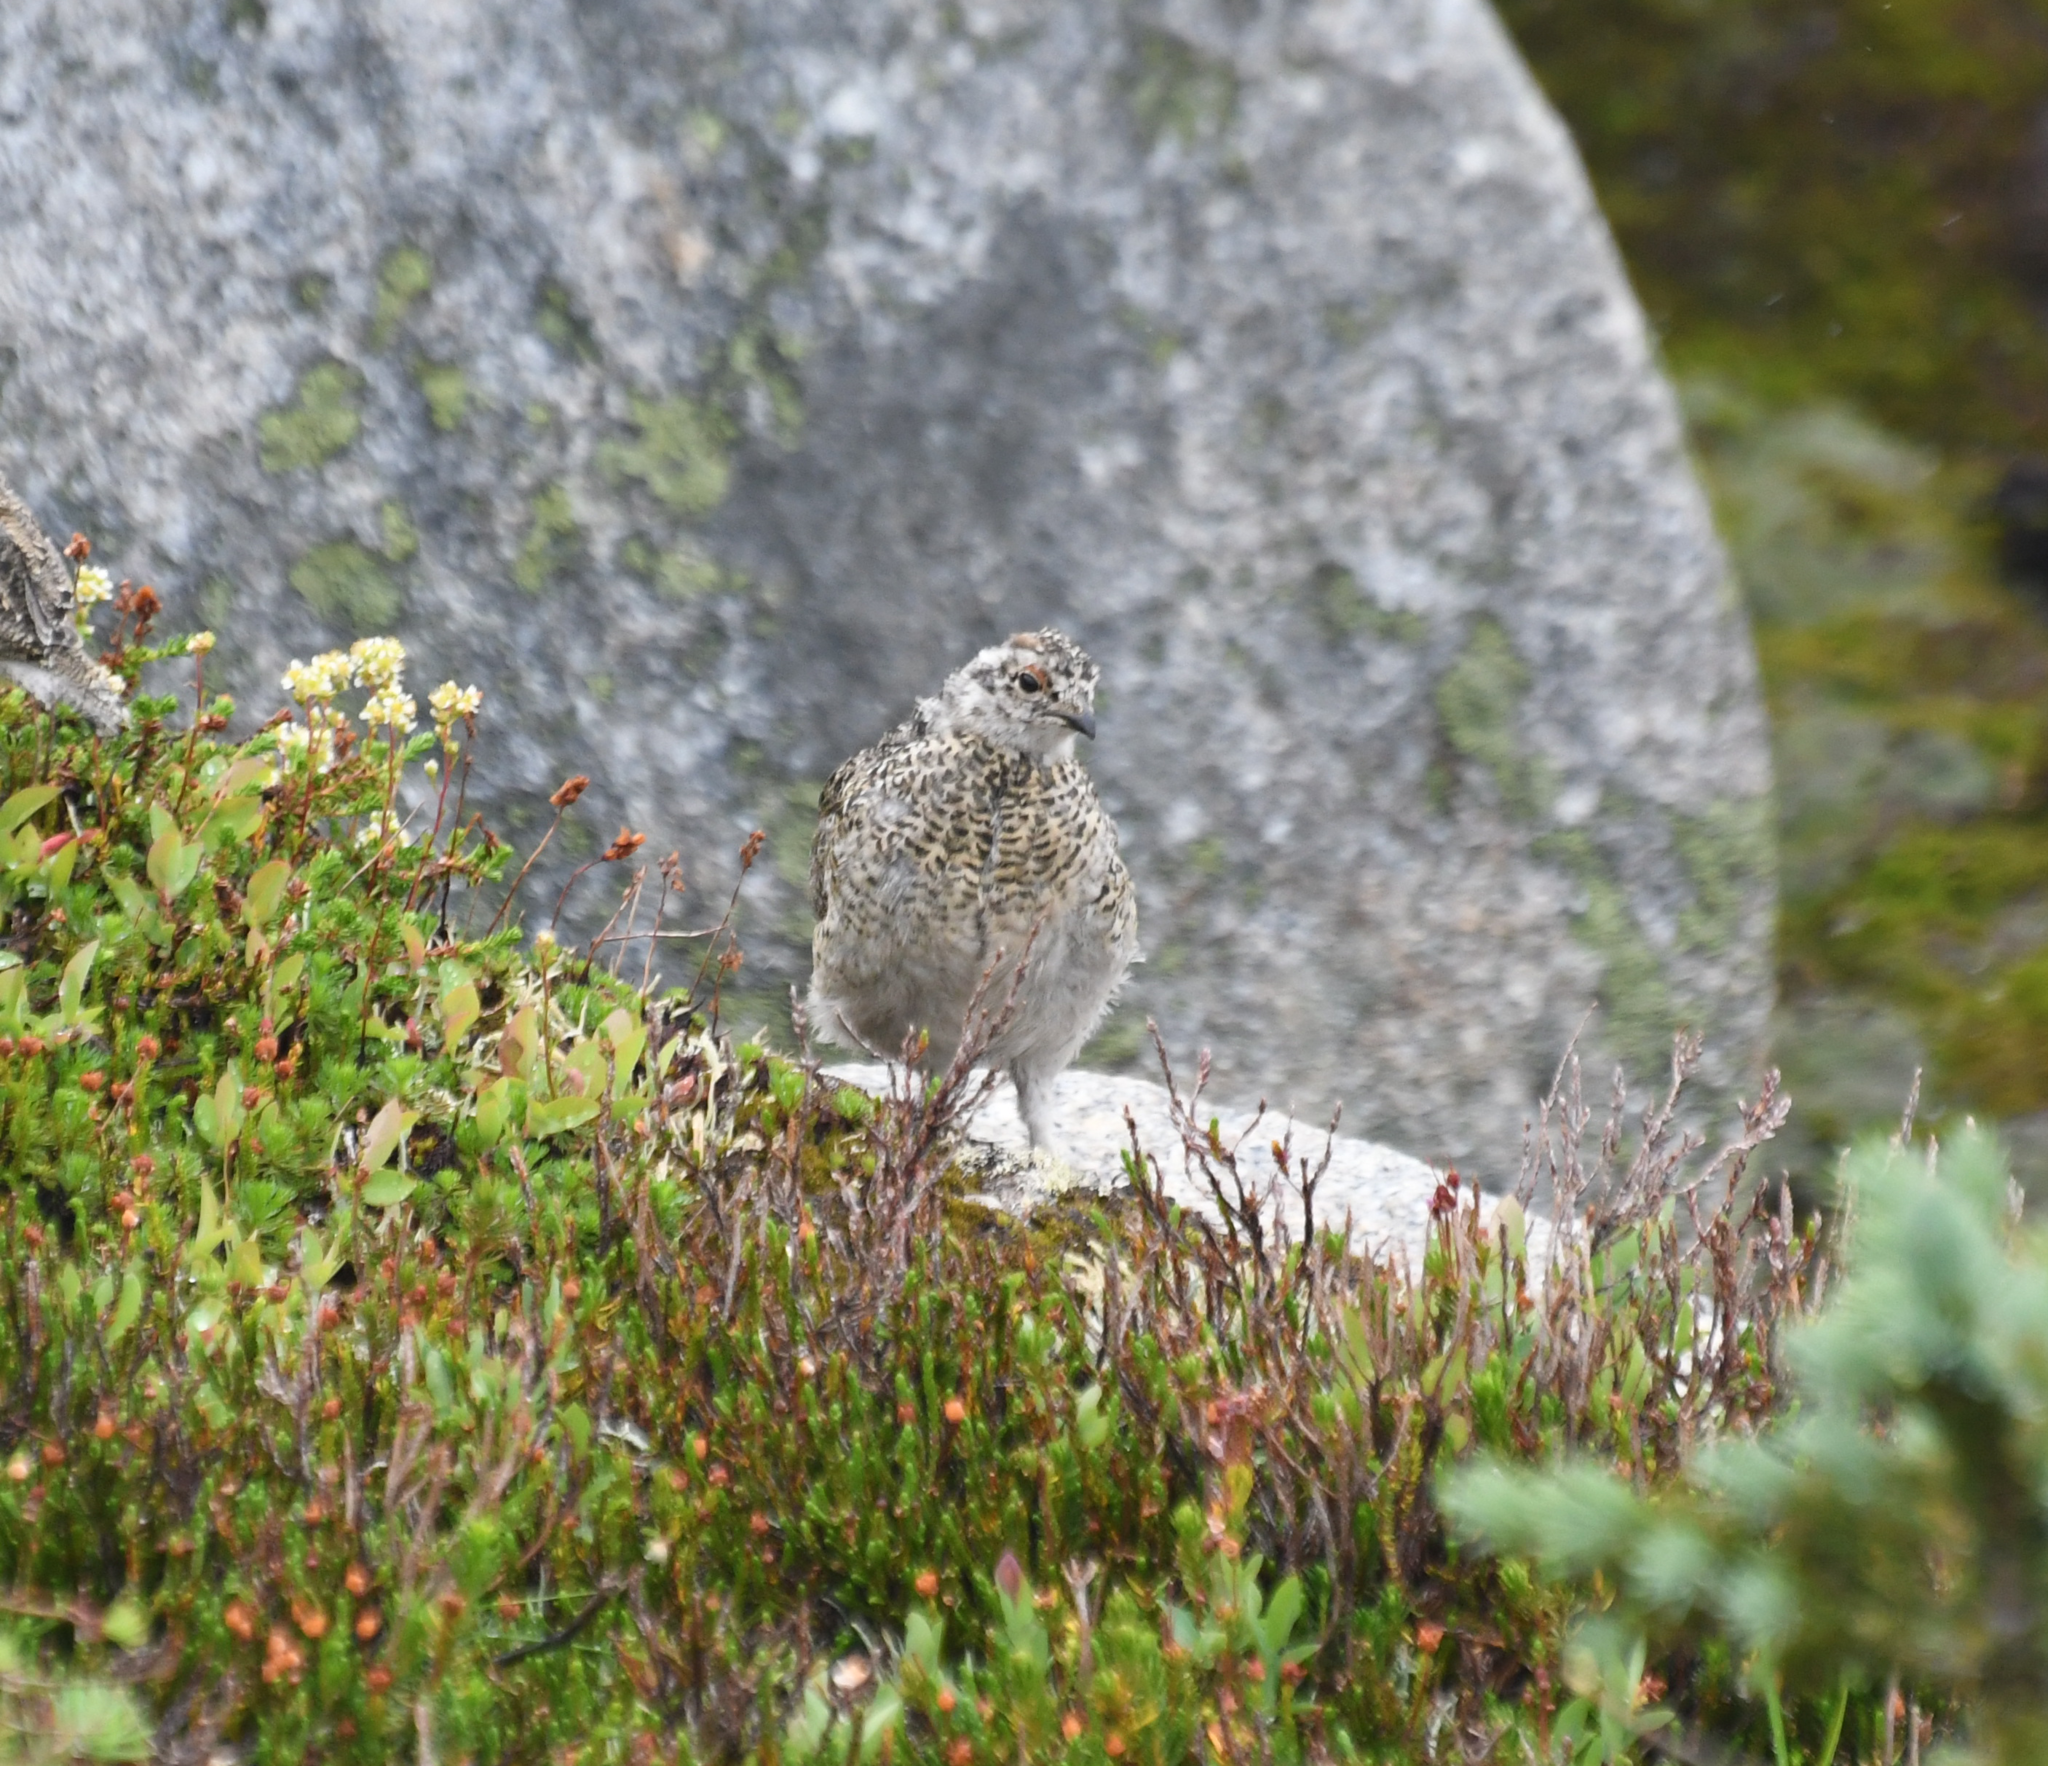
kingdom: Animalia
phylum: Chordata
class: Aves
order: Galliformes
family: Phasianidae
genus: Lagopus
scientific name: Lagopus leucura
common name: White-tailed ptarmigan
